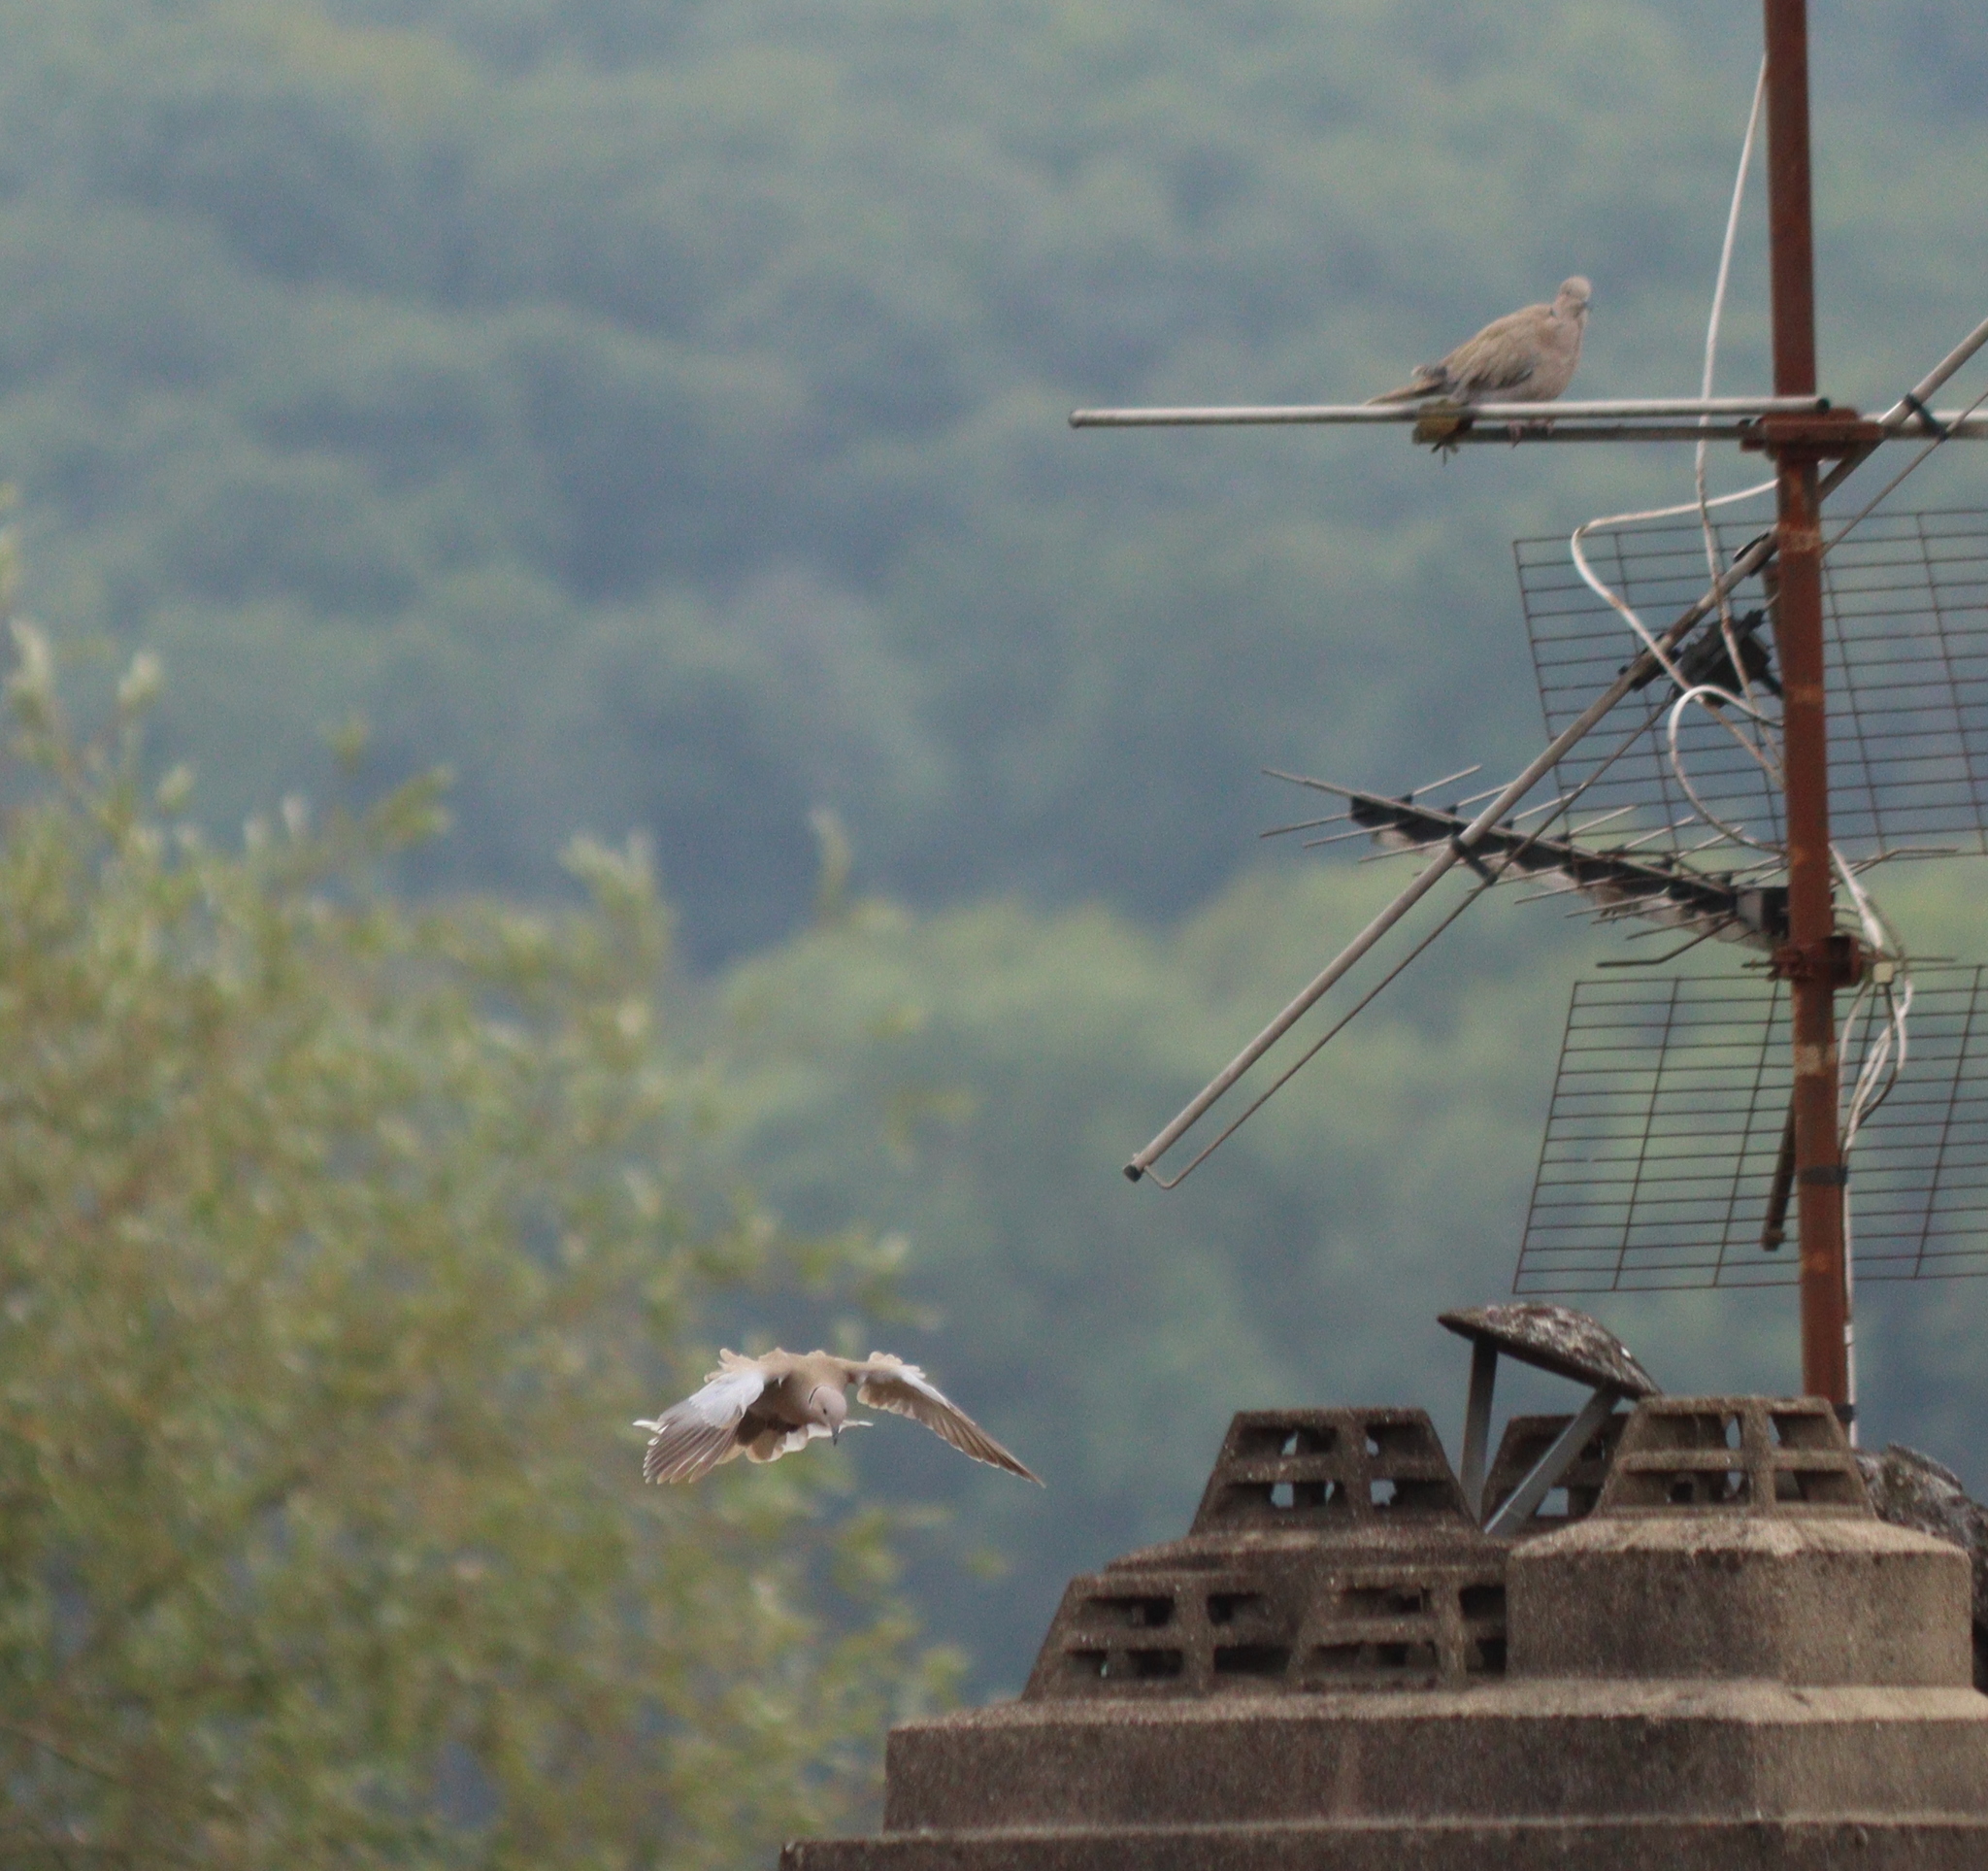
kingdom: Animalia
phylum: Chordata
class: Aves
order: Columbiformes
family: Columbidae
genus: Streptopelia
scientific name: Streptopelia decaocto
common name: Eurasian collared dove
